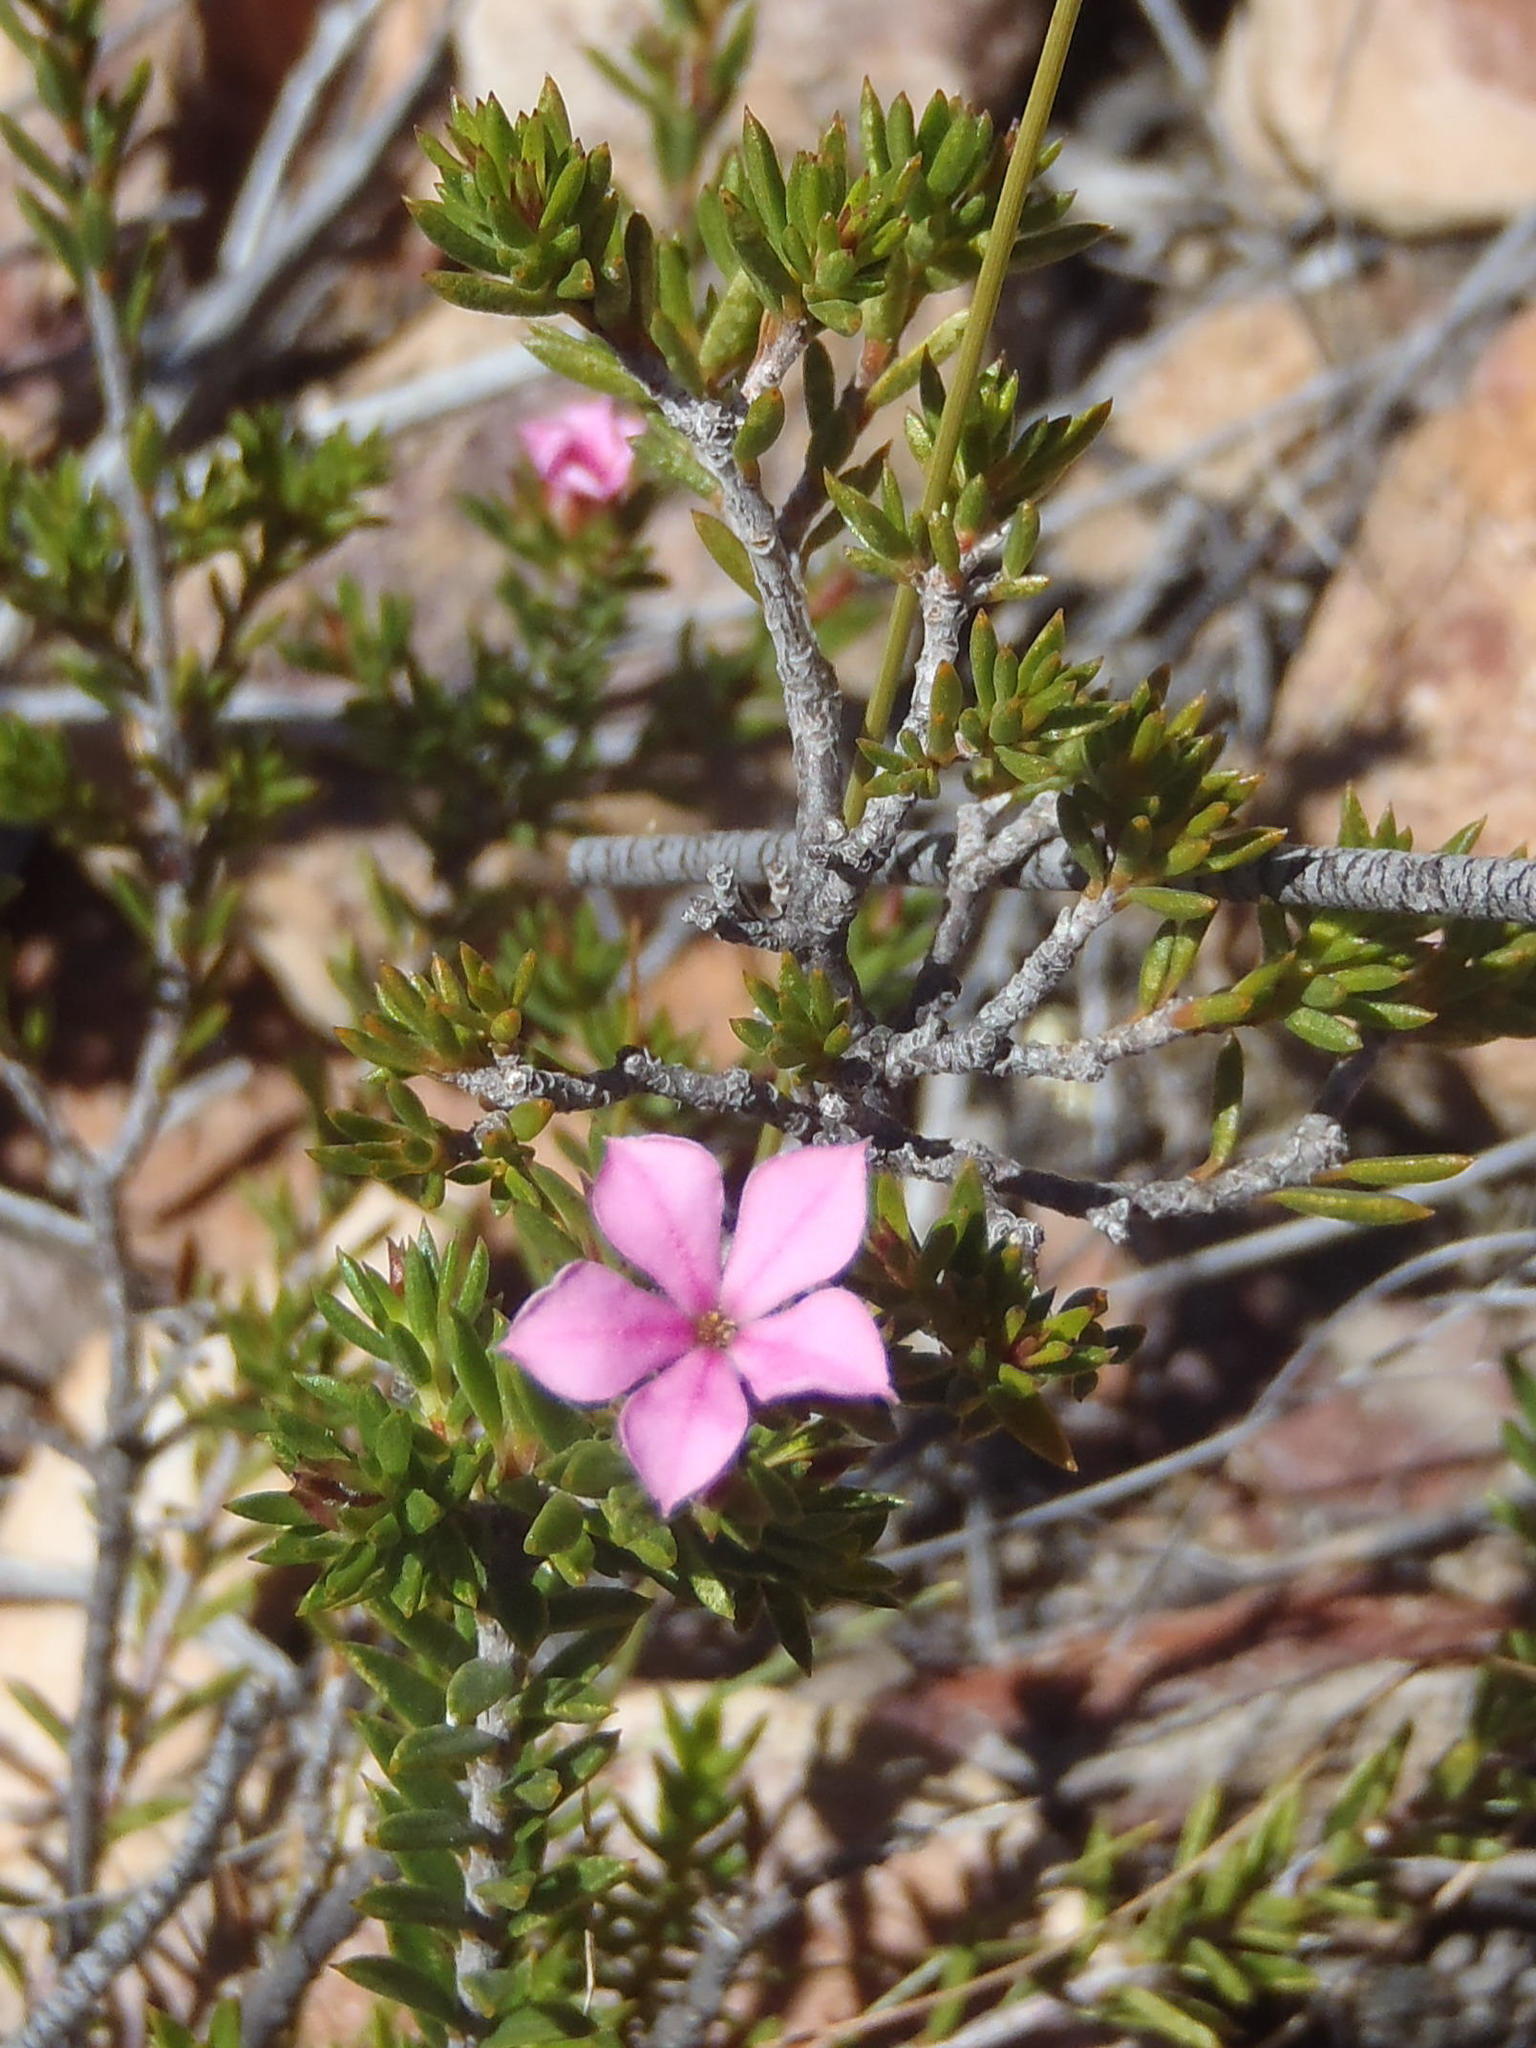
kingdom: Plantae
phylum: Tracheophyta
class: Magnoliopsida
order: Sapindales
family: Rutaceae
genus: Acmadenia
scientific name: Acmadenia maculata
